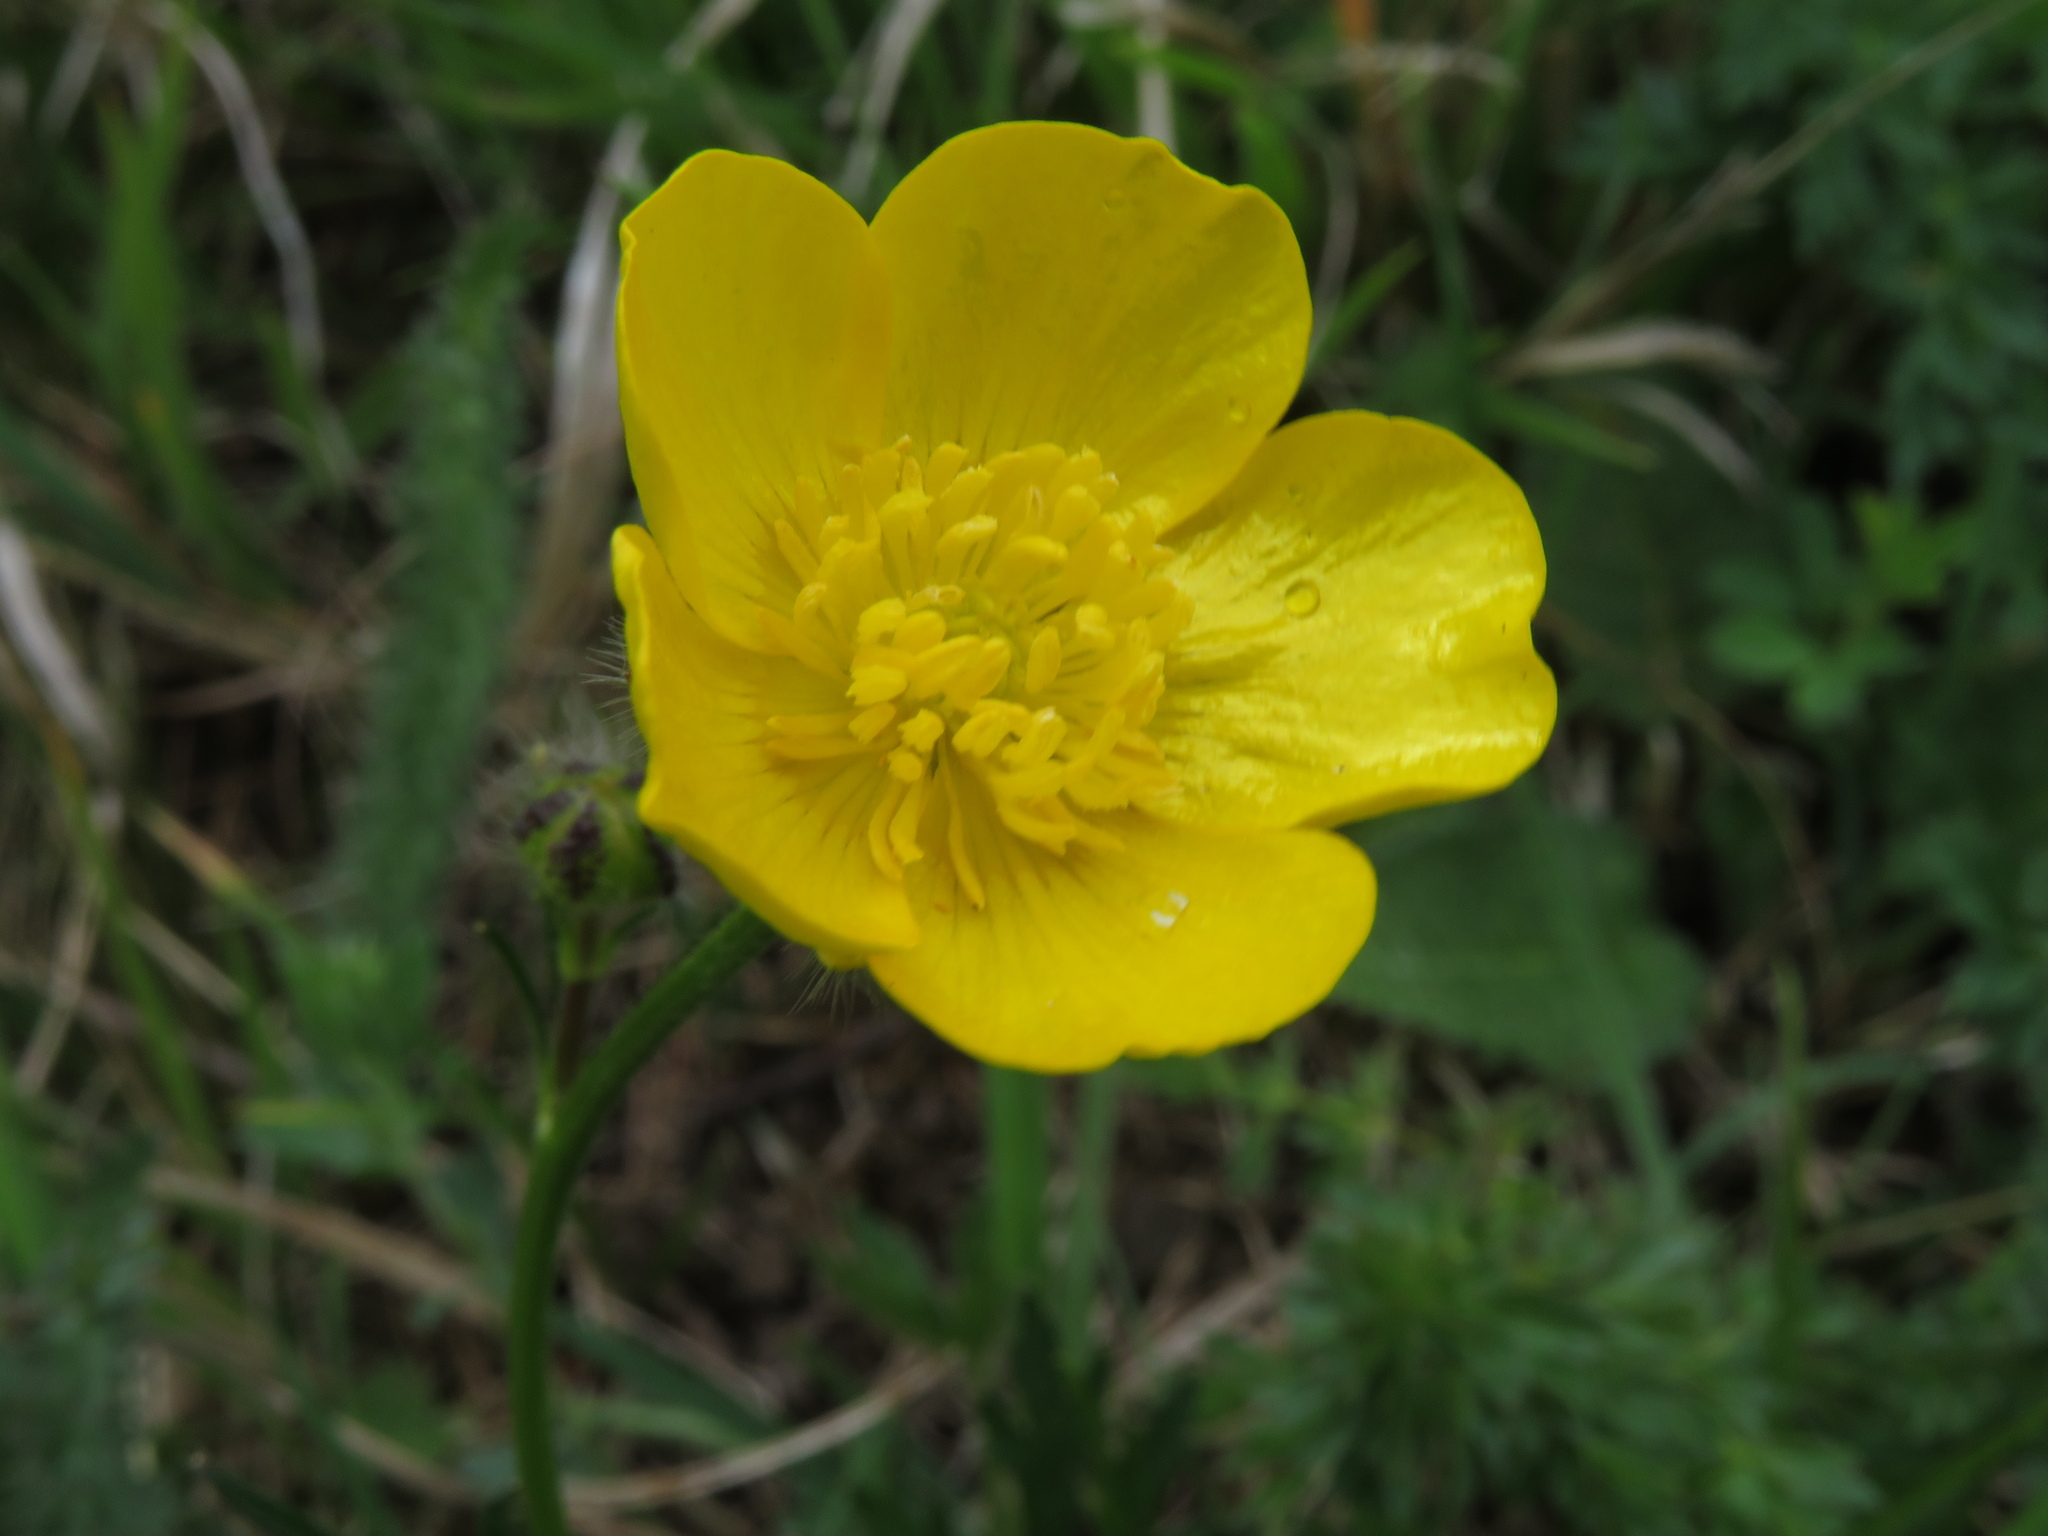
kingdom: Plantae
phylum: Tracheophyta
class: Magnoliopsida
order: Ranunculales
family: Ranunculaceae
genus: Ranunculus
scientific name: Ranunculus polyanthemos
